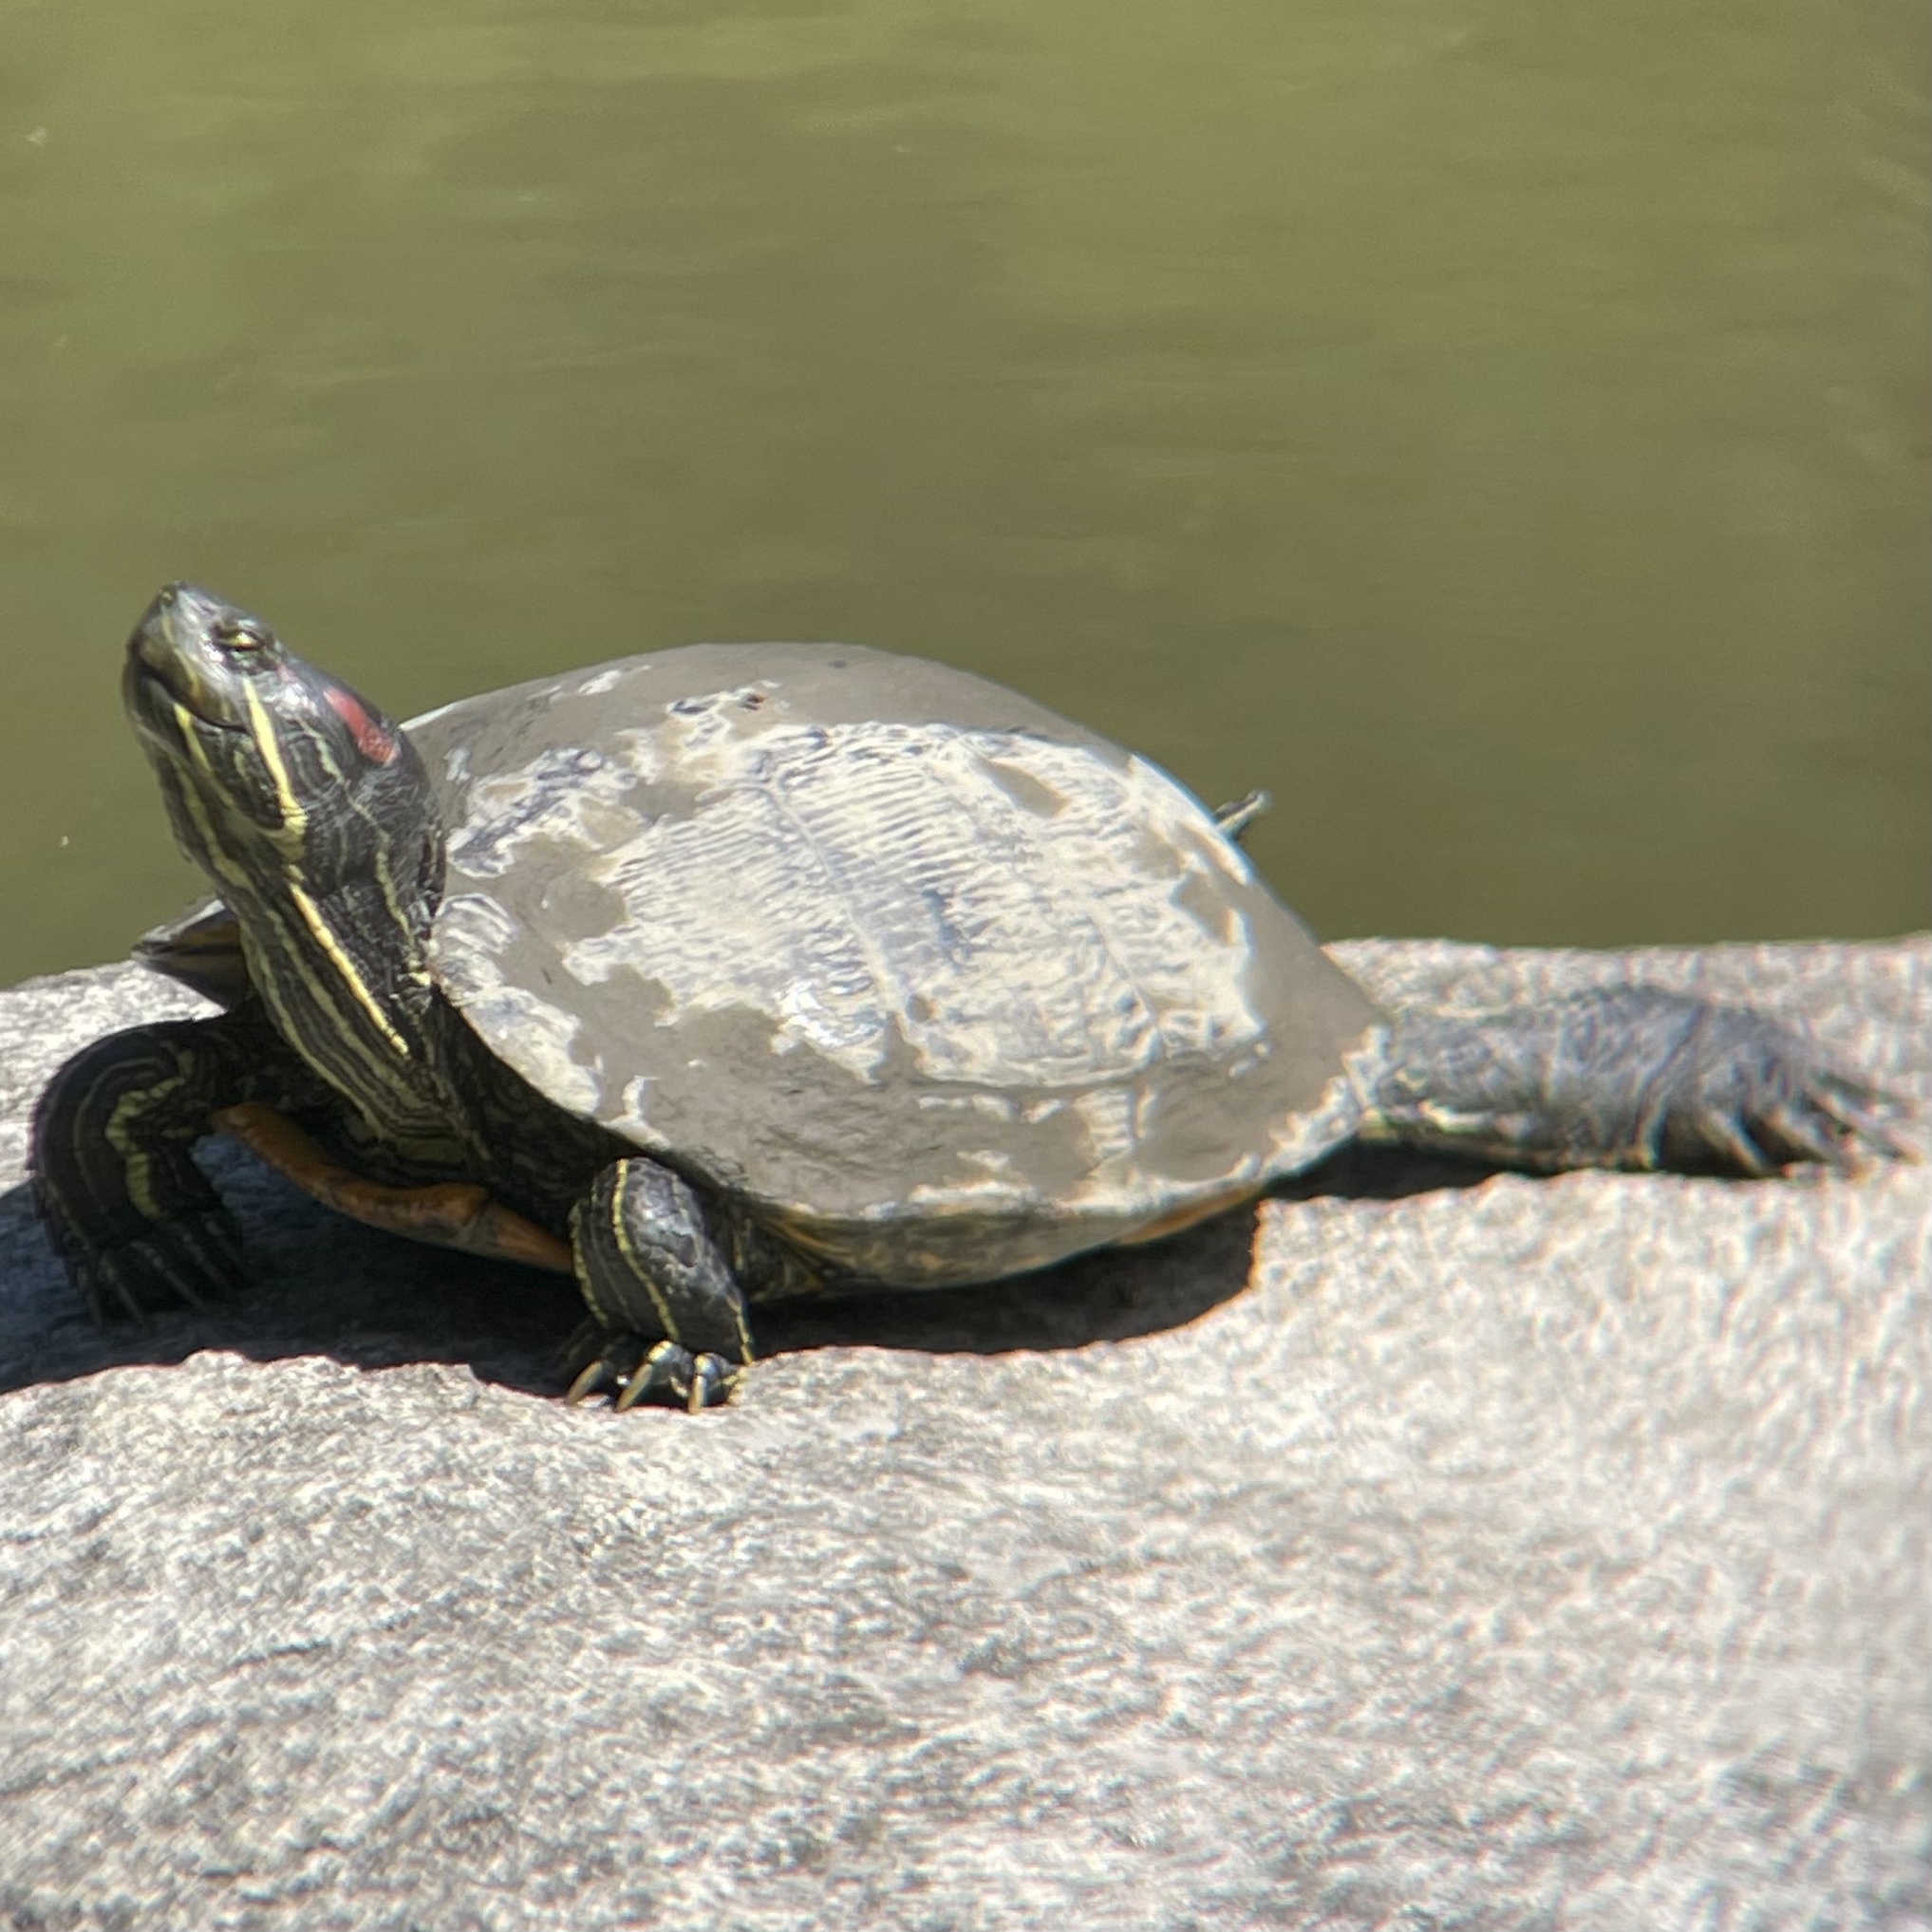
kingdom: Animalia
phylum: Chordata
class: Testudines
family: Emydidae
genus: Trachemys
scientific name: Trachemys scripta
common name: Slider
